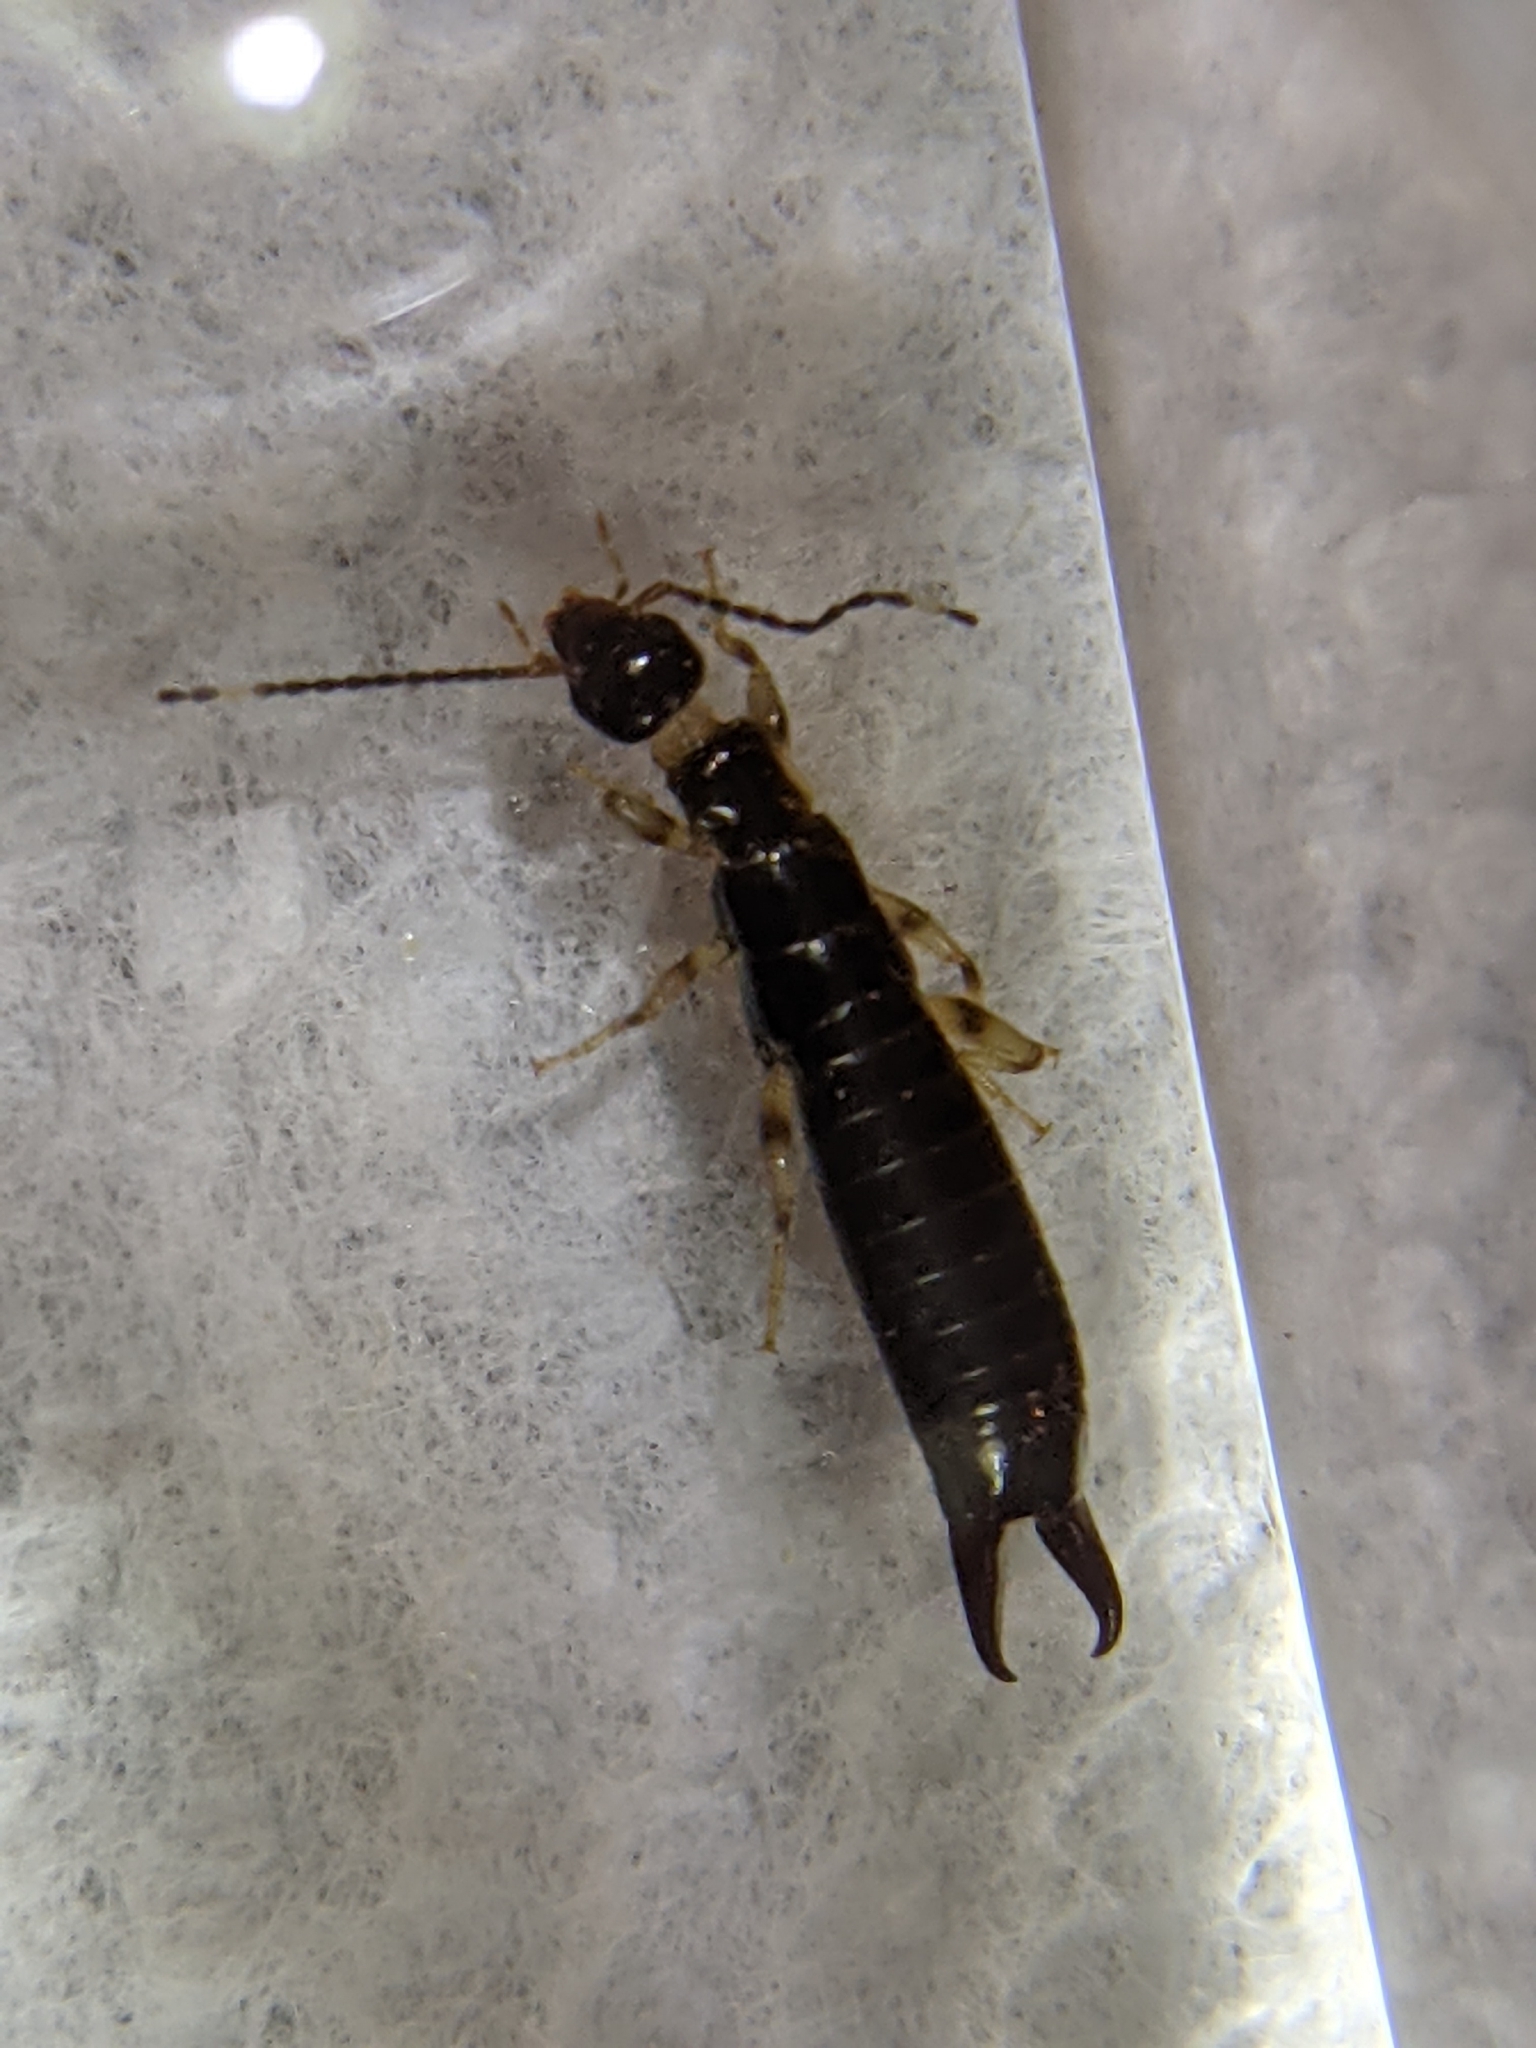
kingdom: Animalia
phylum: Arthropoda
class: Insecta
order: Dermaptera
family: Anisolabididae
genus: Euborellia
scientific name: Euborellia annulipes
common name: Ringlegged earwig
